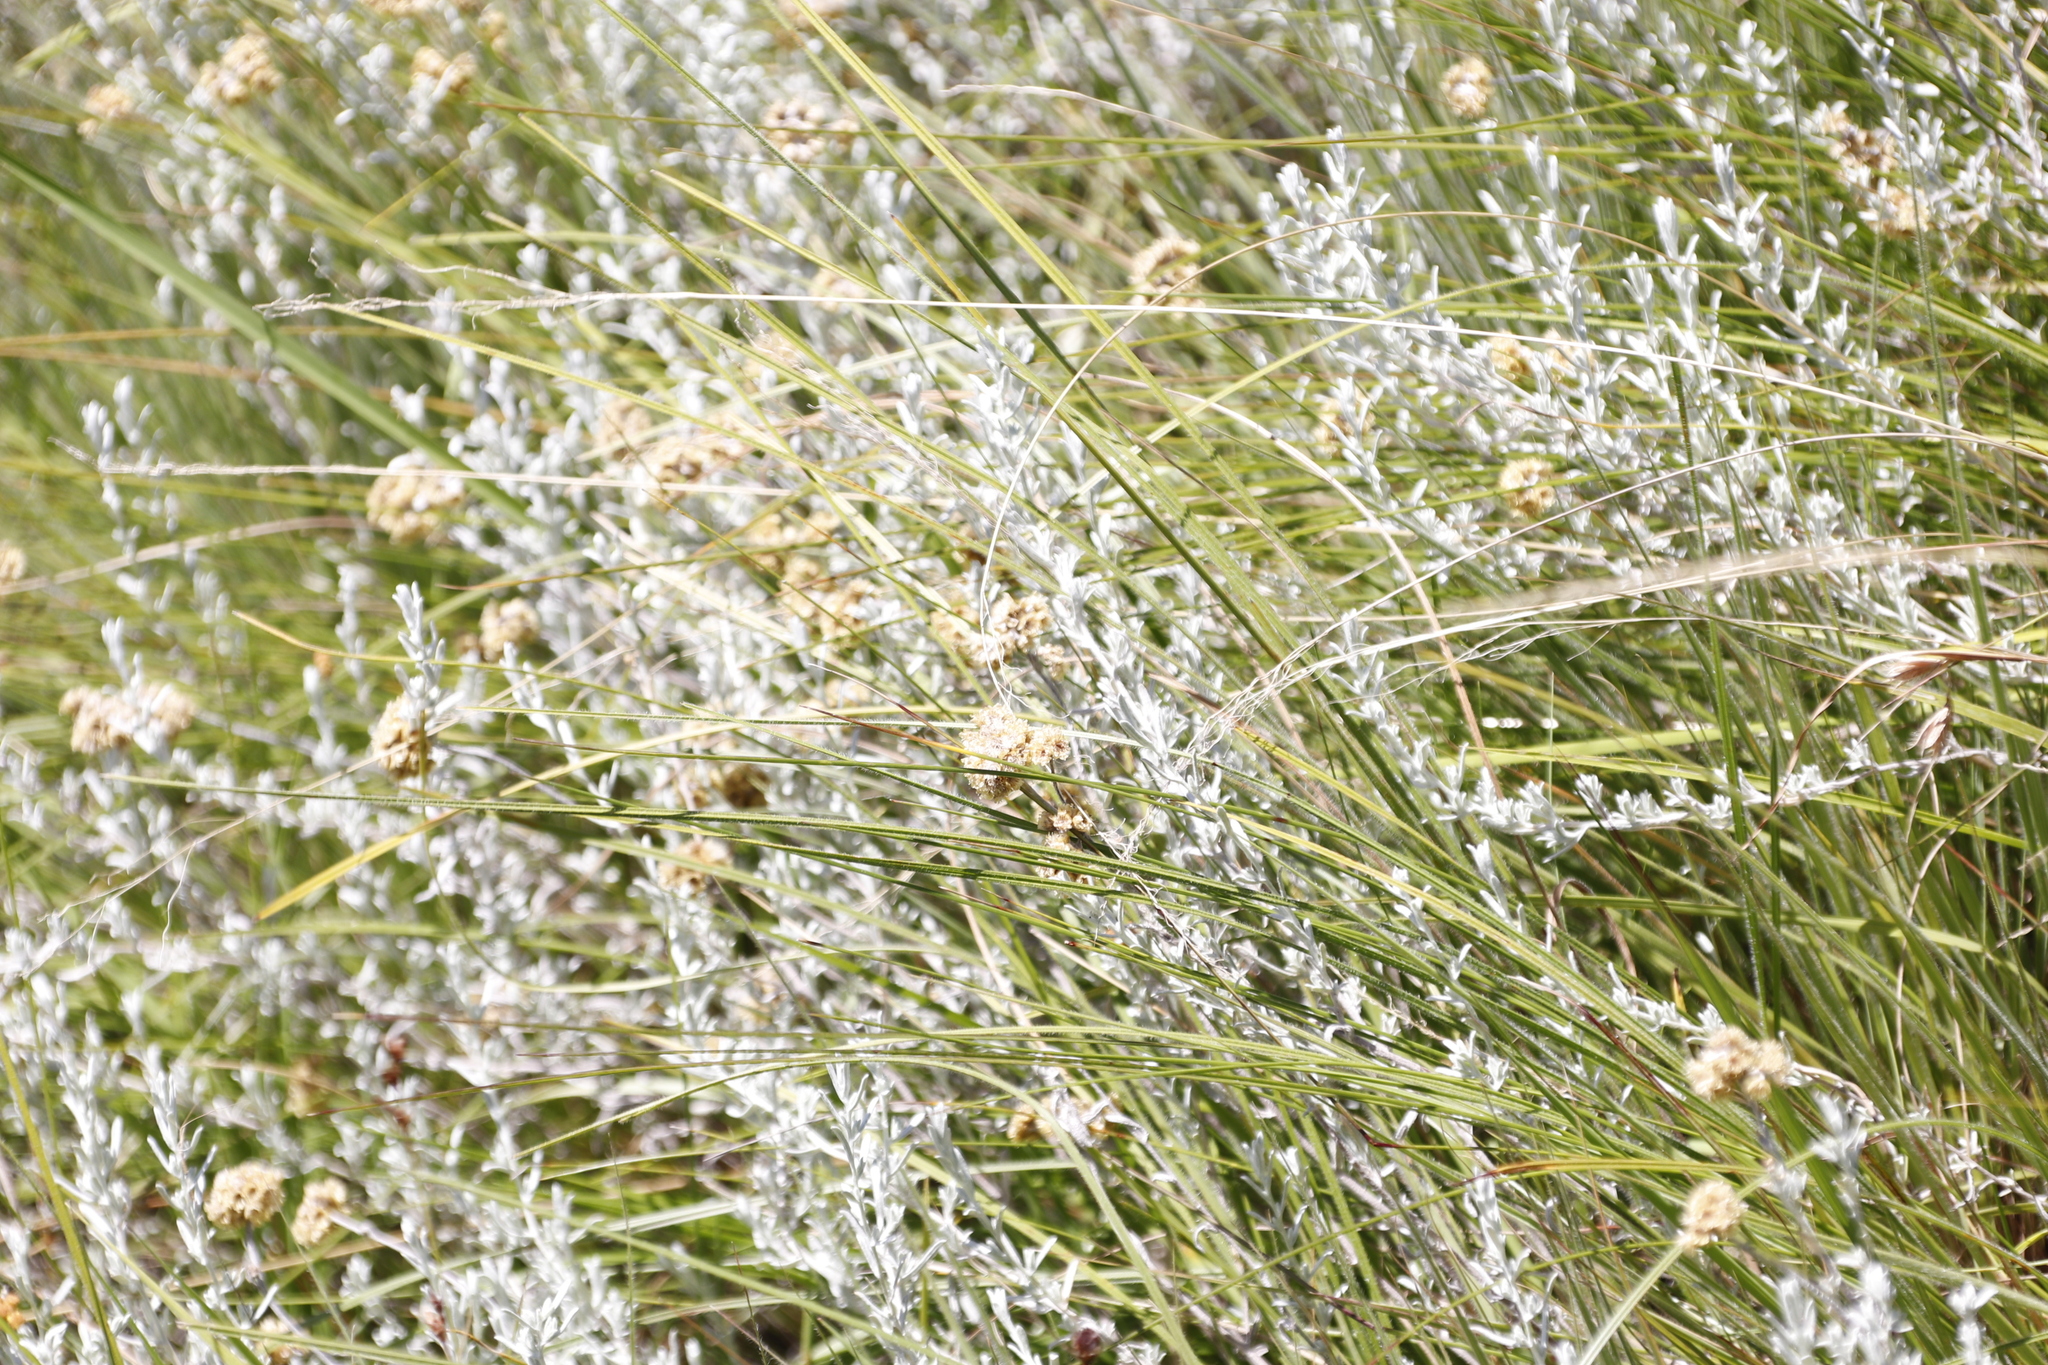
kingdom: Plantae
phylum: Tracheophyta
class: Magnoliopsida
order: Asterales
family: Asteraceae
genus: Helichrysum
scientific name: Helichrysum aureonitens
